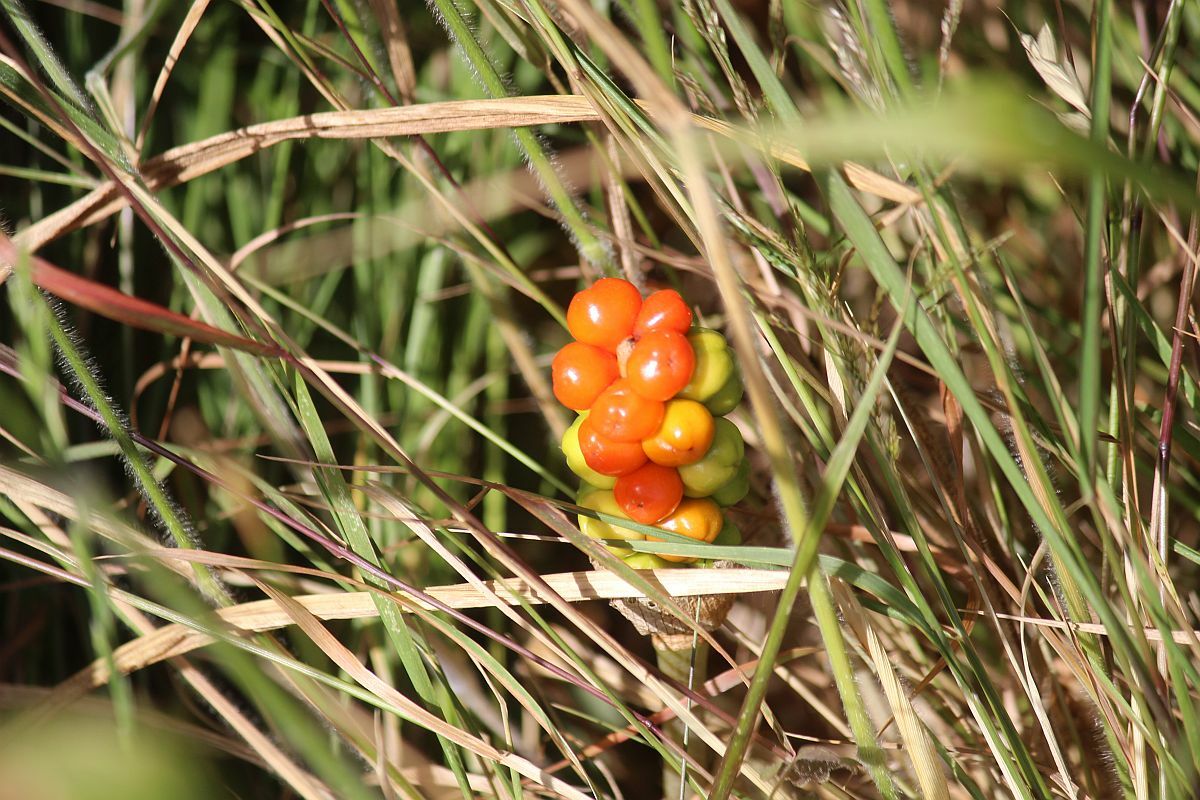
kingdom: Plantae
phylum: Tracheophyta
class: Liliopsida
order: Alismatales
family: Araceae
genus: Arum
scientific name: Arum maculatum
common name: Lords-and-ladies
